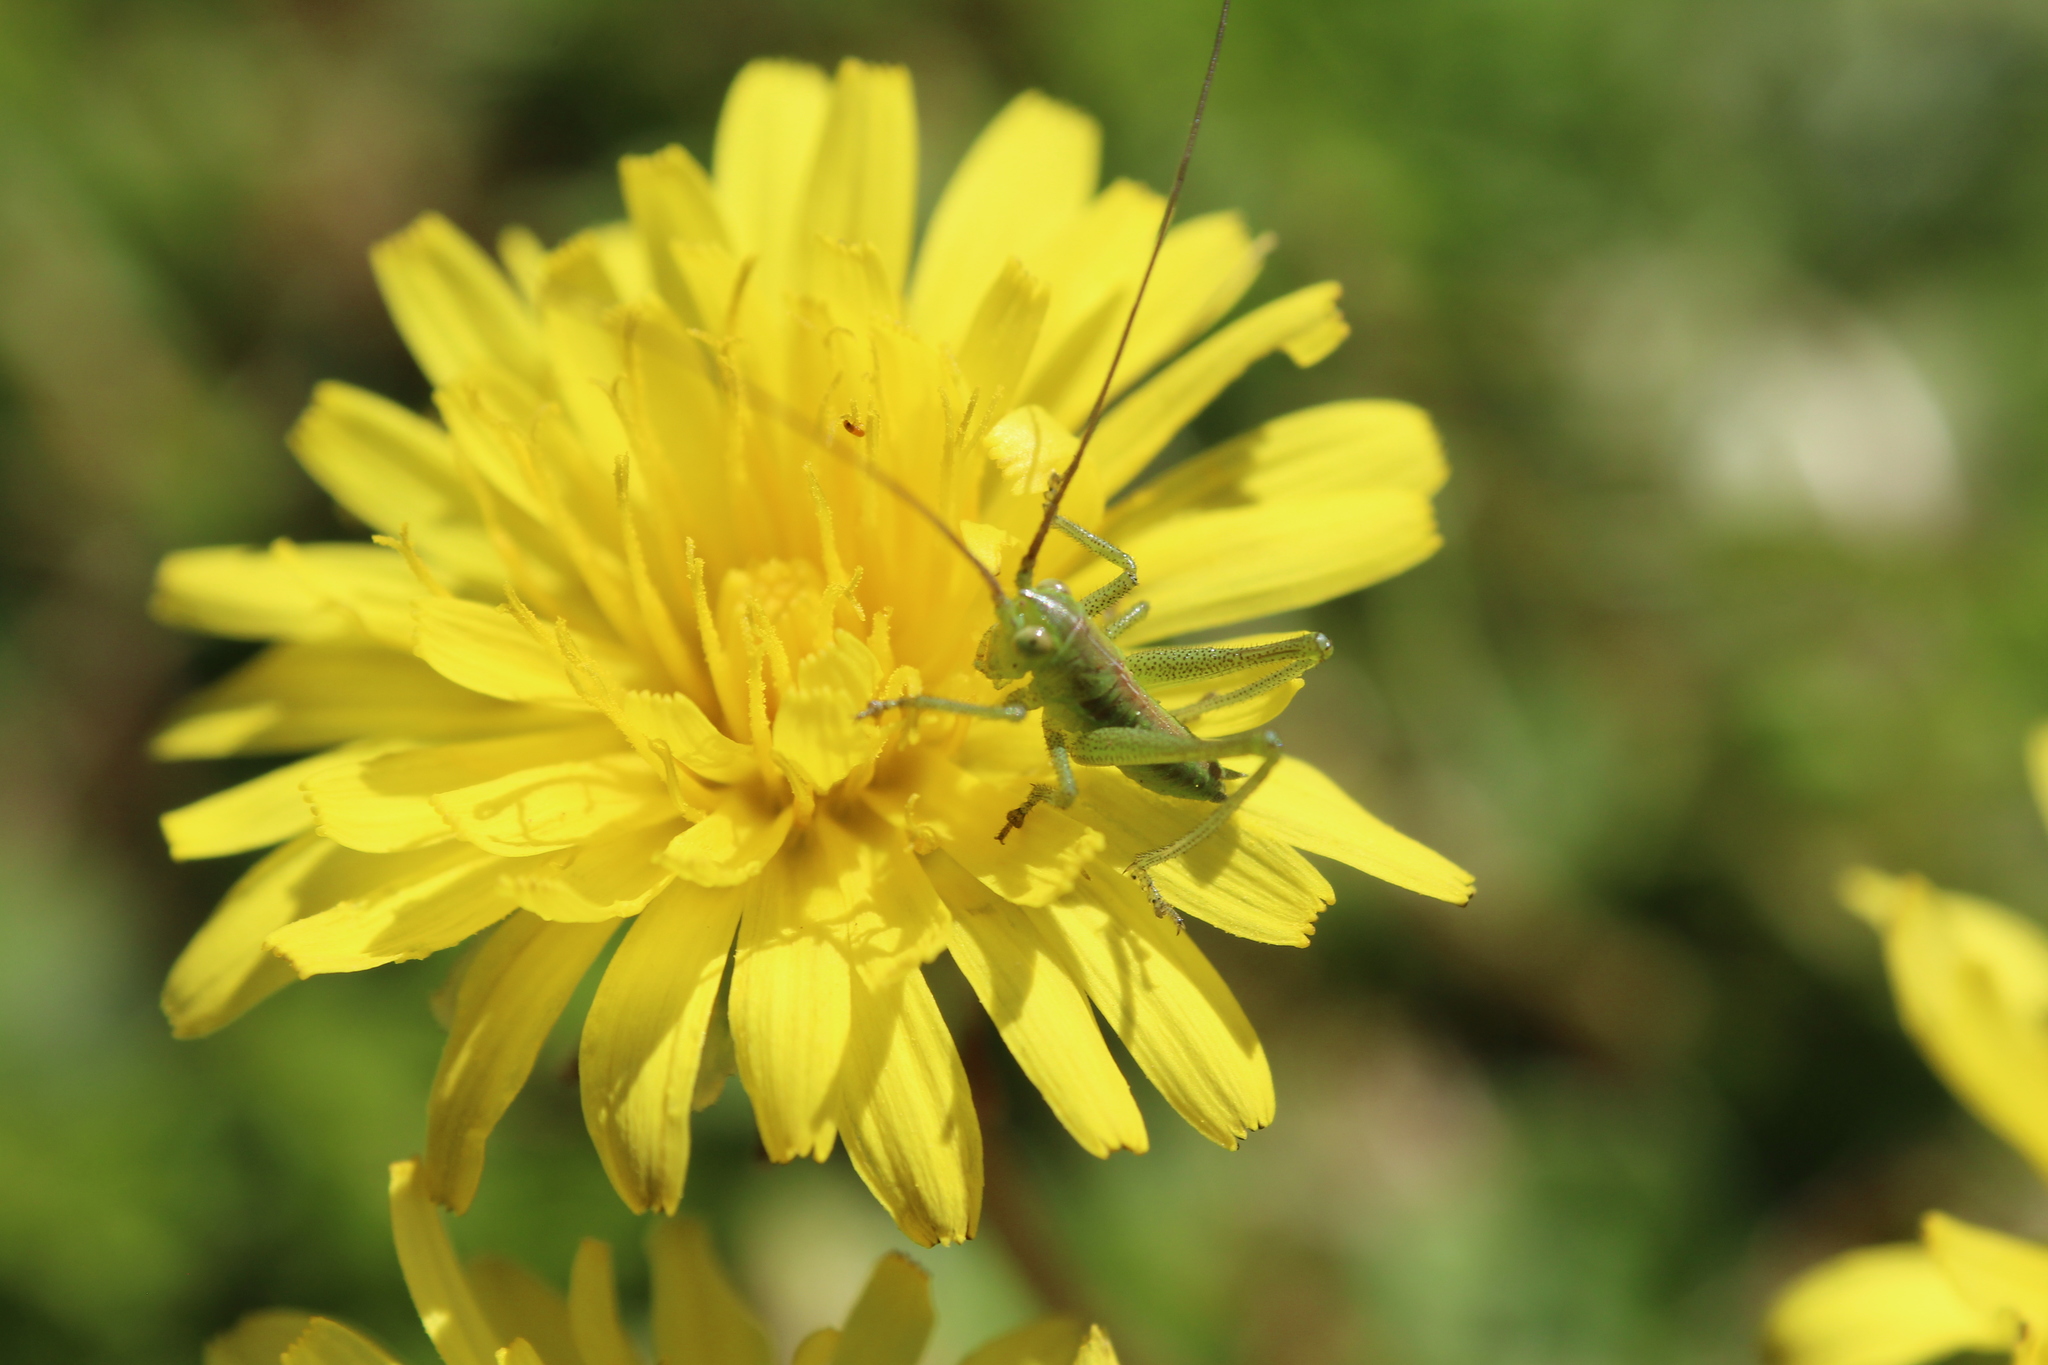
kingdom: Animalia
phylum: Arthropoda
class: Insecta
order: Orthoptera
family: Tettigoniidae
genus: Tettigonia
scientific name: Tettigonia viridissima
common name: Great green bush-cricket
